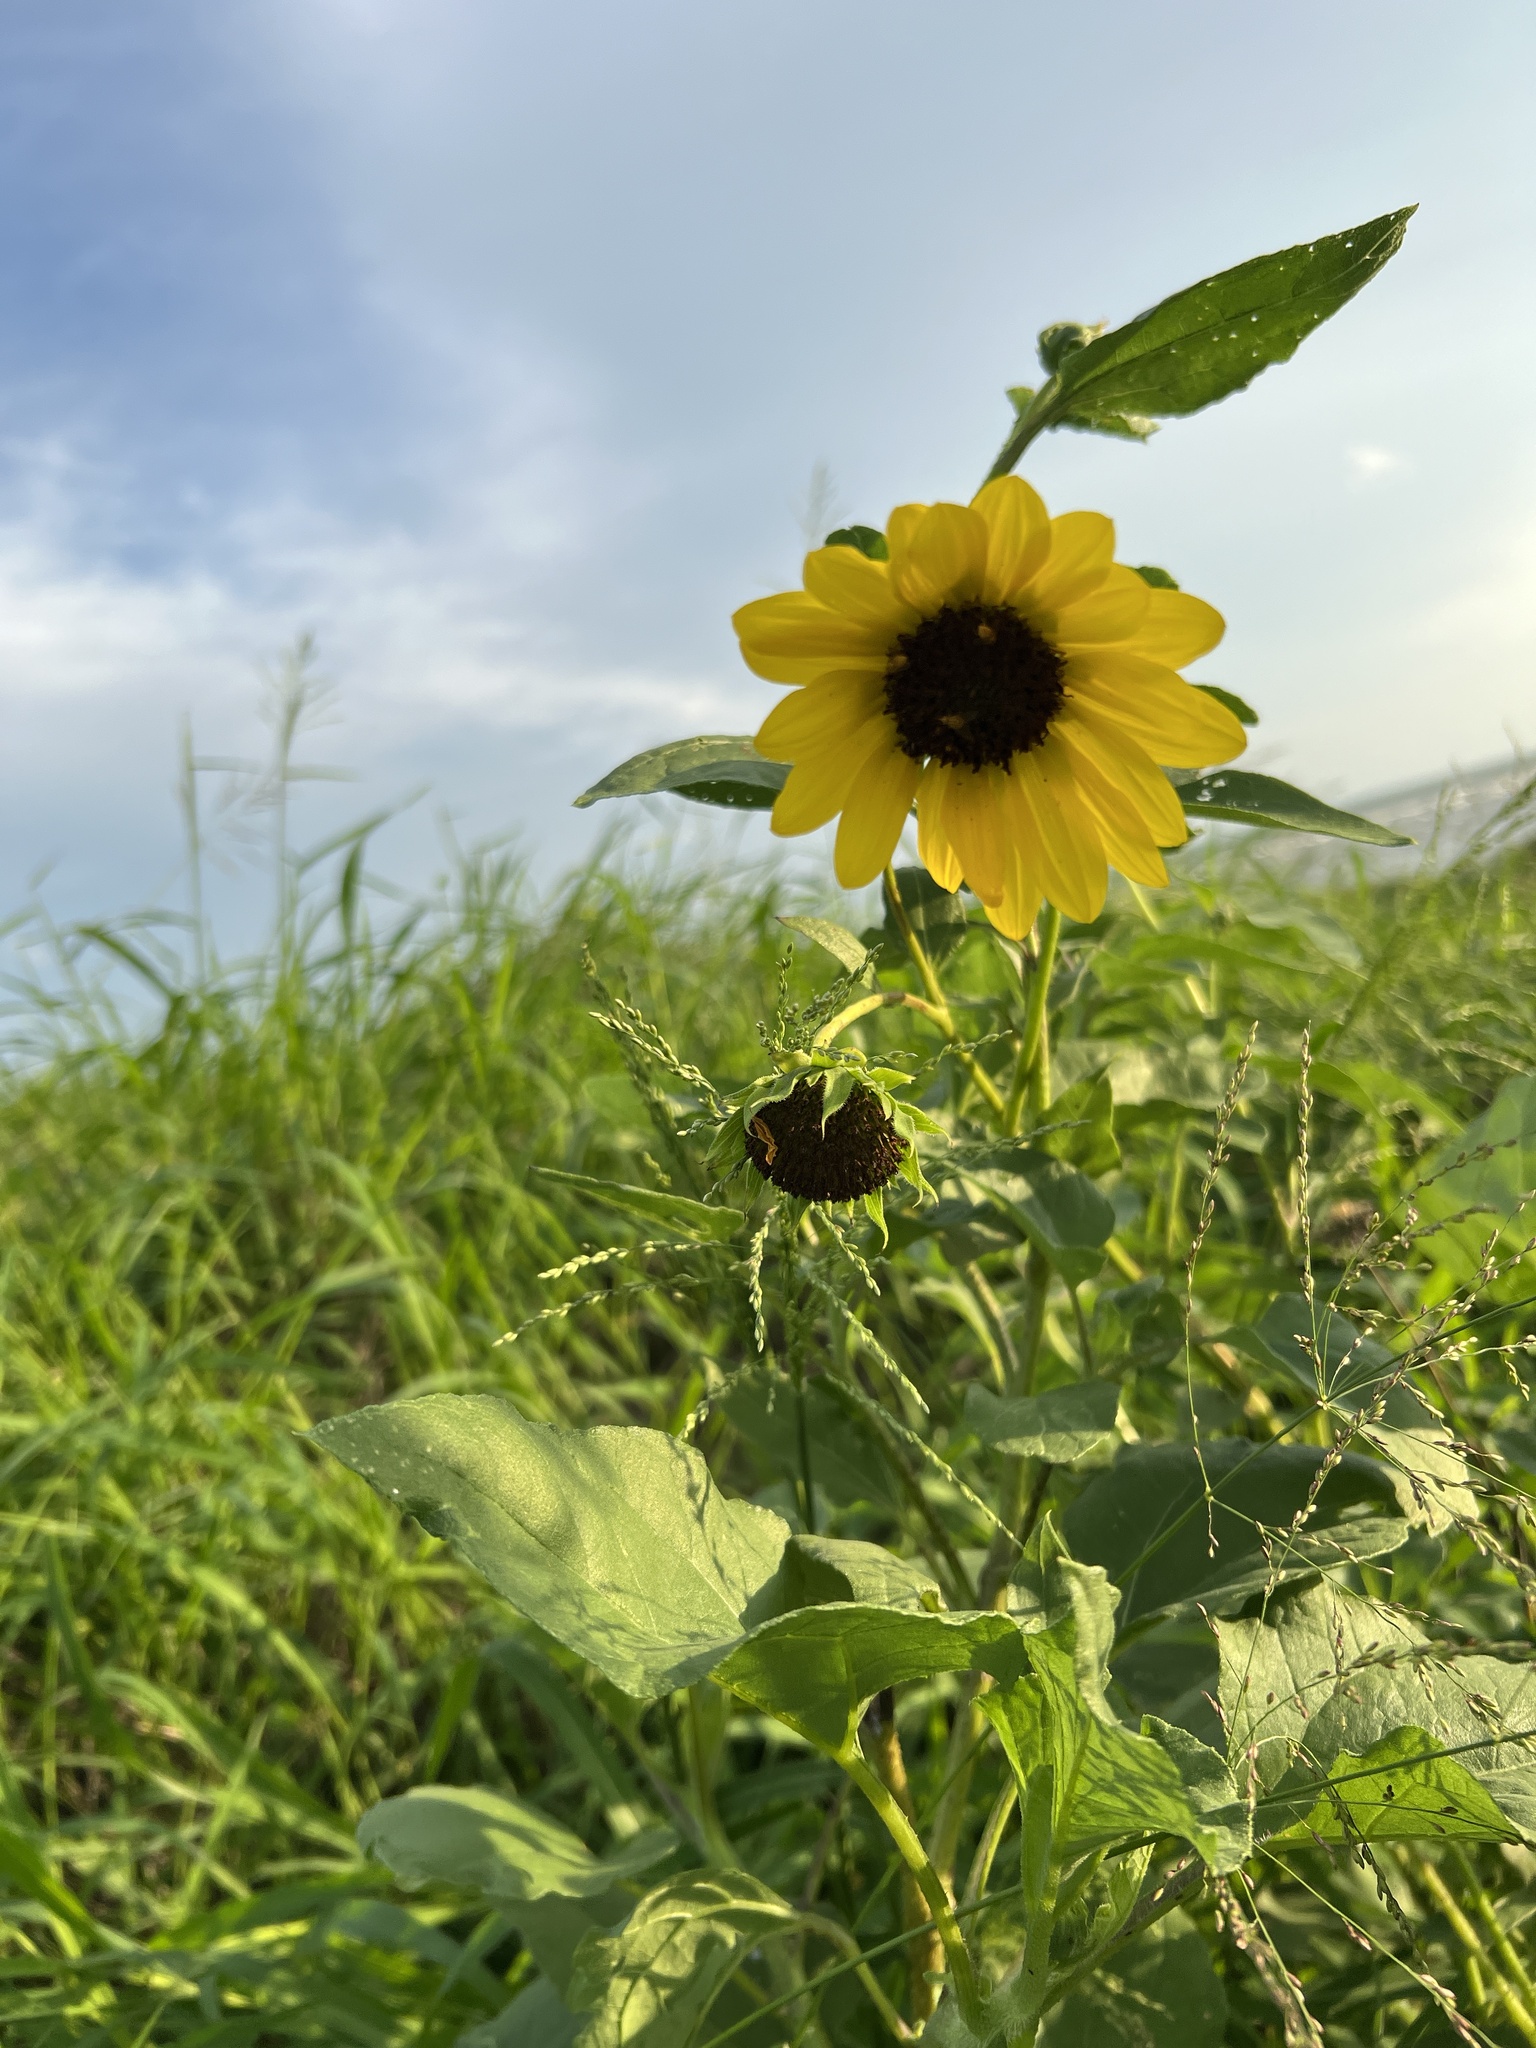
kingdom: Plantae
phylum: Tracheophyta
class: Magnoliopsida
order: Asterales
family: Asteraceae
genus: Helianthus
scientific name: Helianthus annuus
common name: Sunflower
